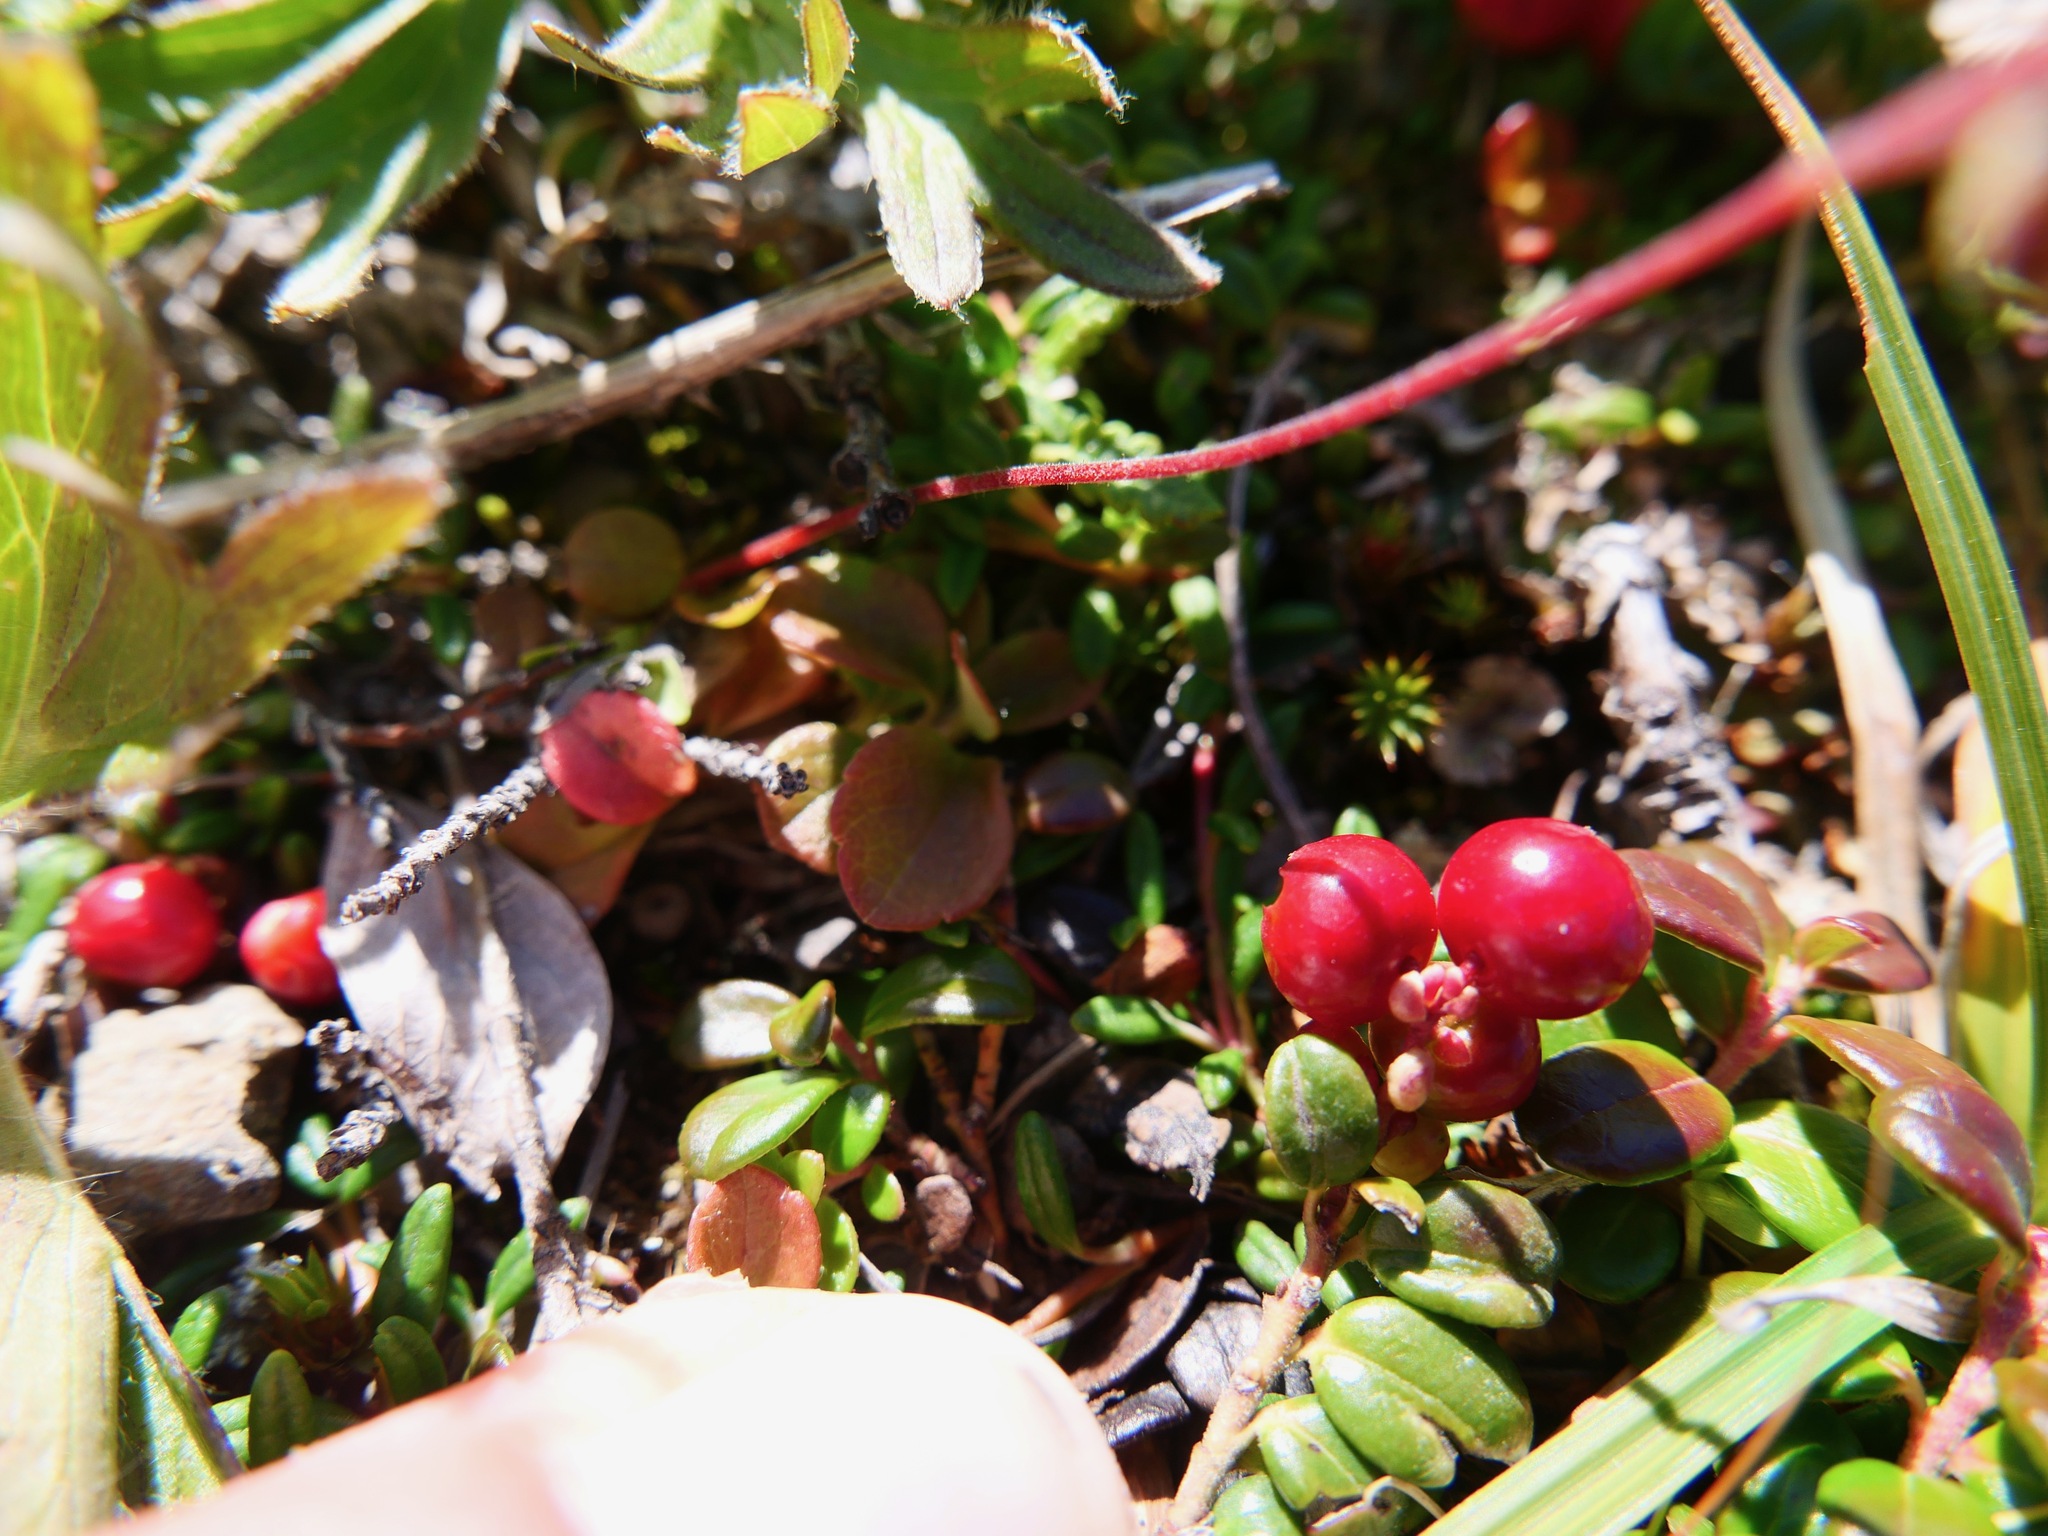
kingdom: Plantae
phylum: Tracheophyta
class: Magnoliopsida
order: Ericales
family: Ericaceae
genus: Vaccinium
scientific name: Vaccinium vitis-idaea
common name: Cowberry
